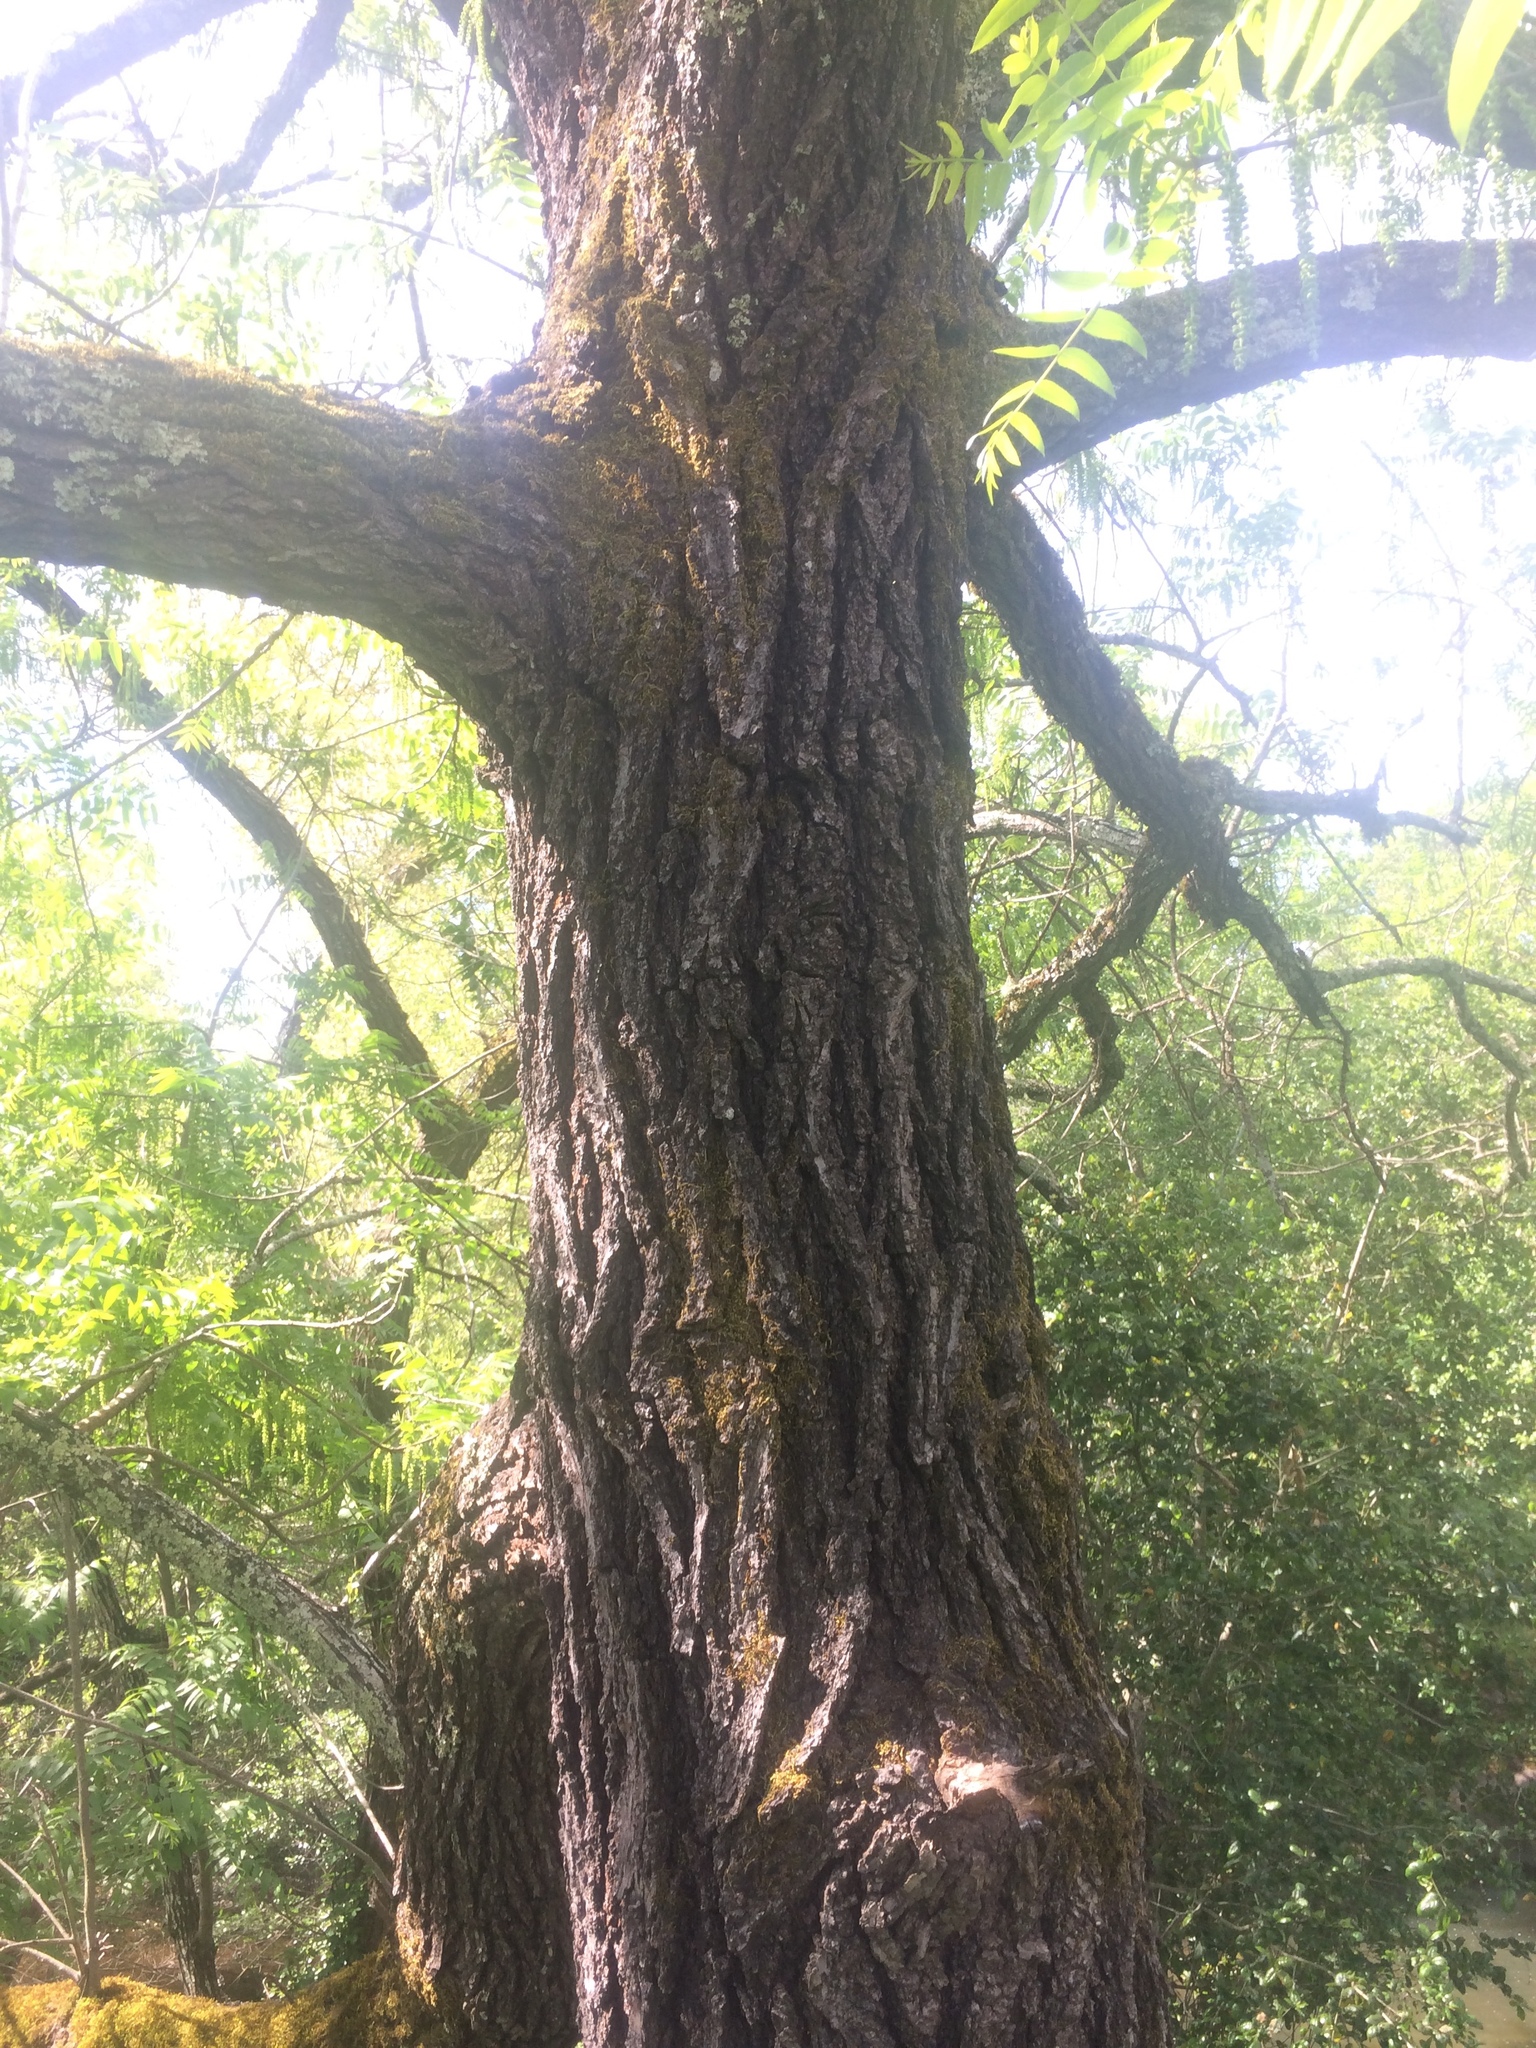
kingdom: Plantae
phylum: Tracheophyta
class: Magnoliopsida
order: Fagales
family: Juglandaceae
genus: Juglans
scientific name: Juglans hindsii
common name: Northern california black walnut
